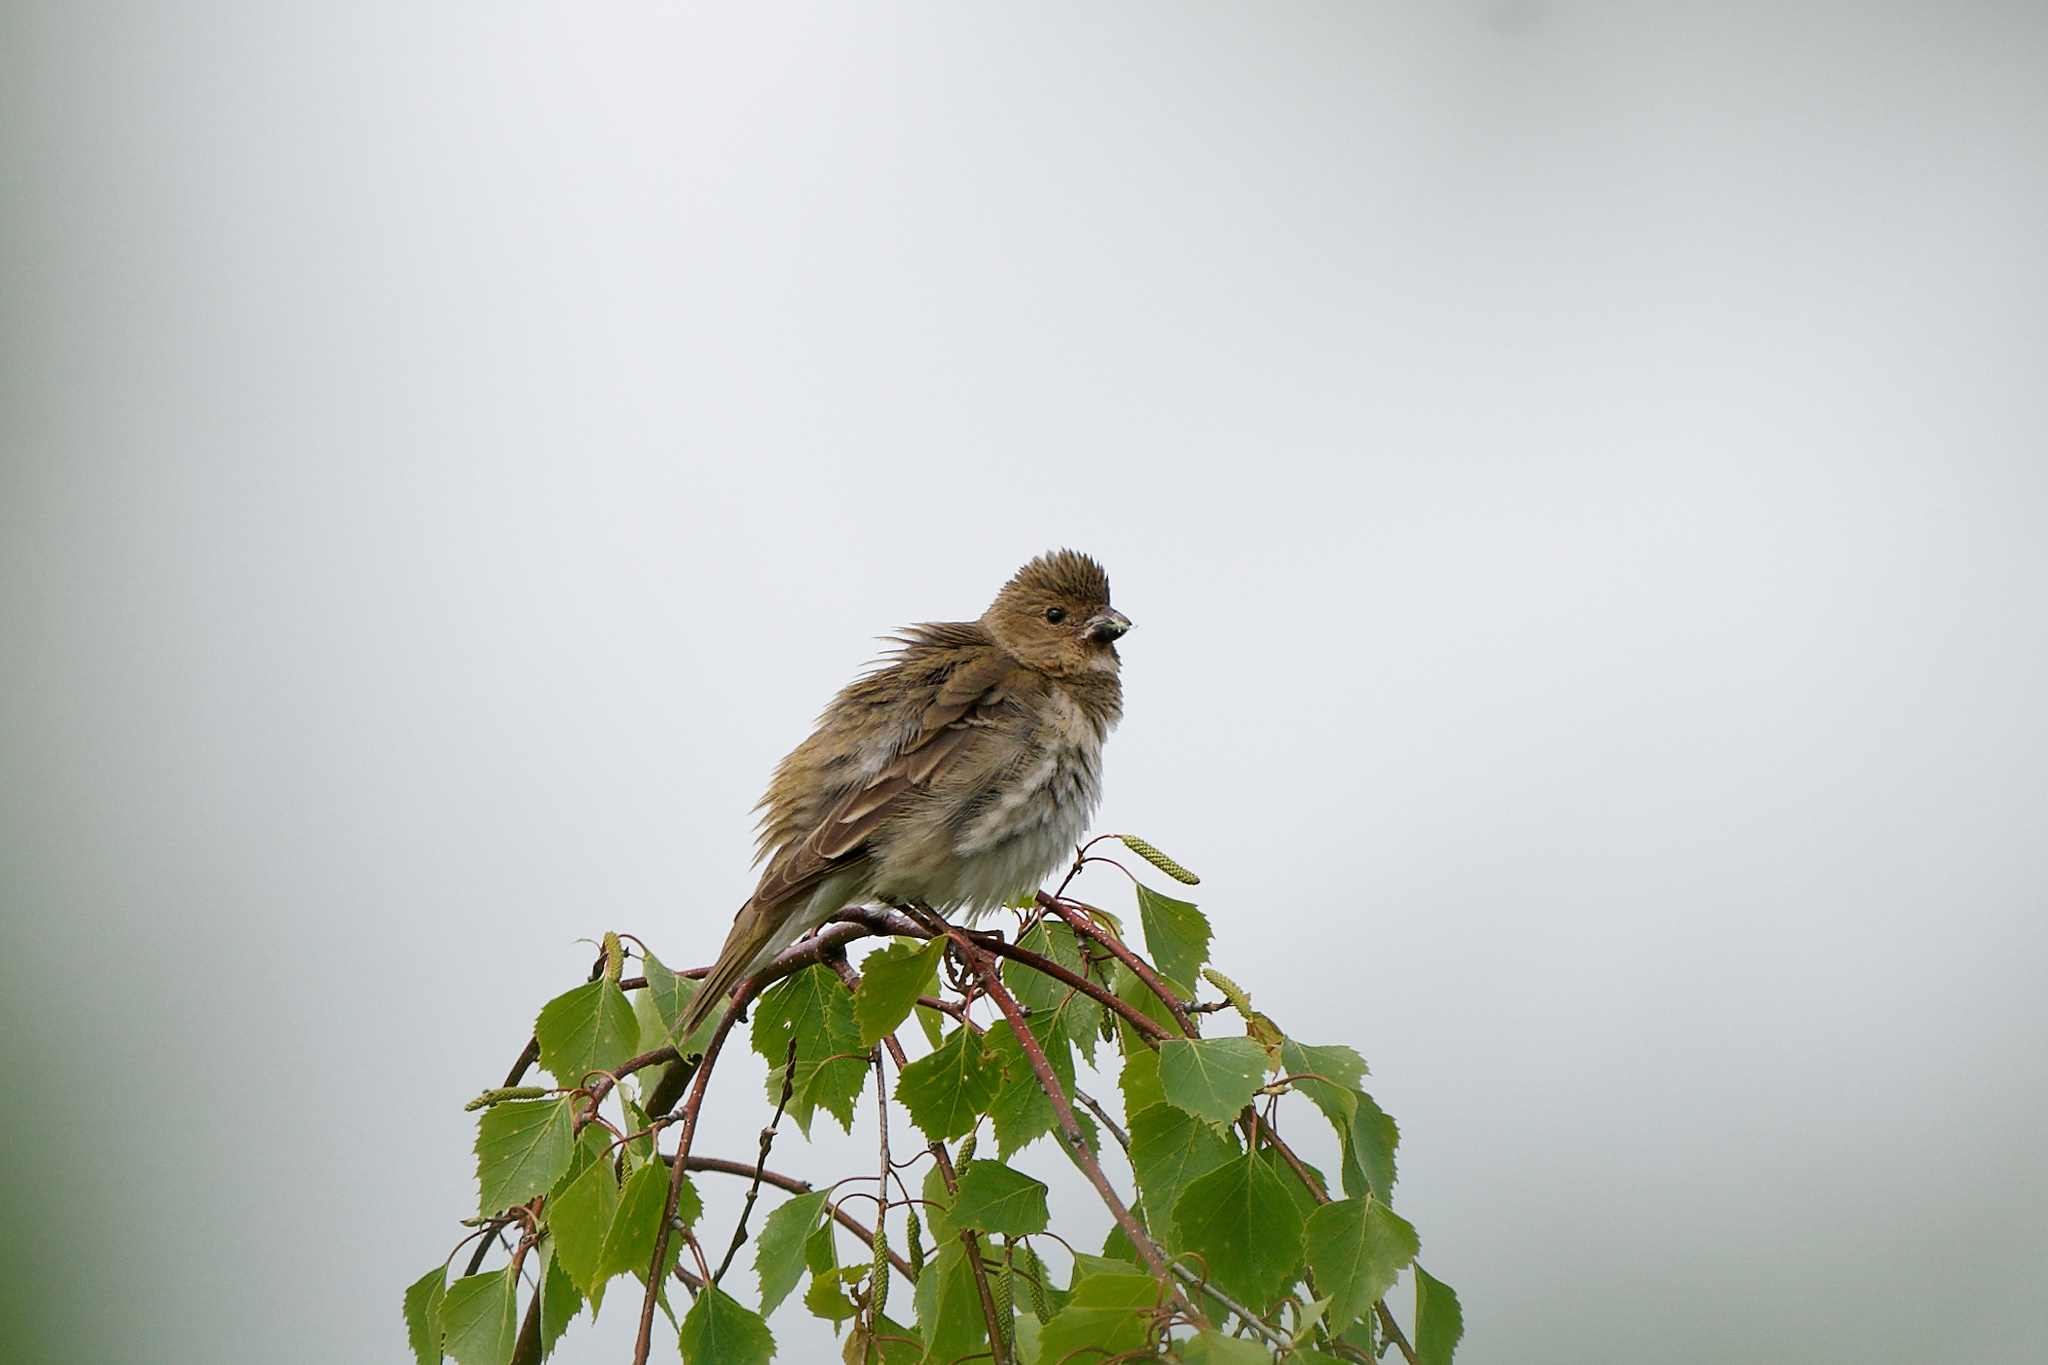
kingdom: Animalia
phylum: Chordata
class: Aves
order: Passeriformes
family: Fringillidae
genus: Carpodacus
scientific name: Carpodacus erythrinus
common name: Common rosefinch
